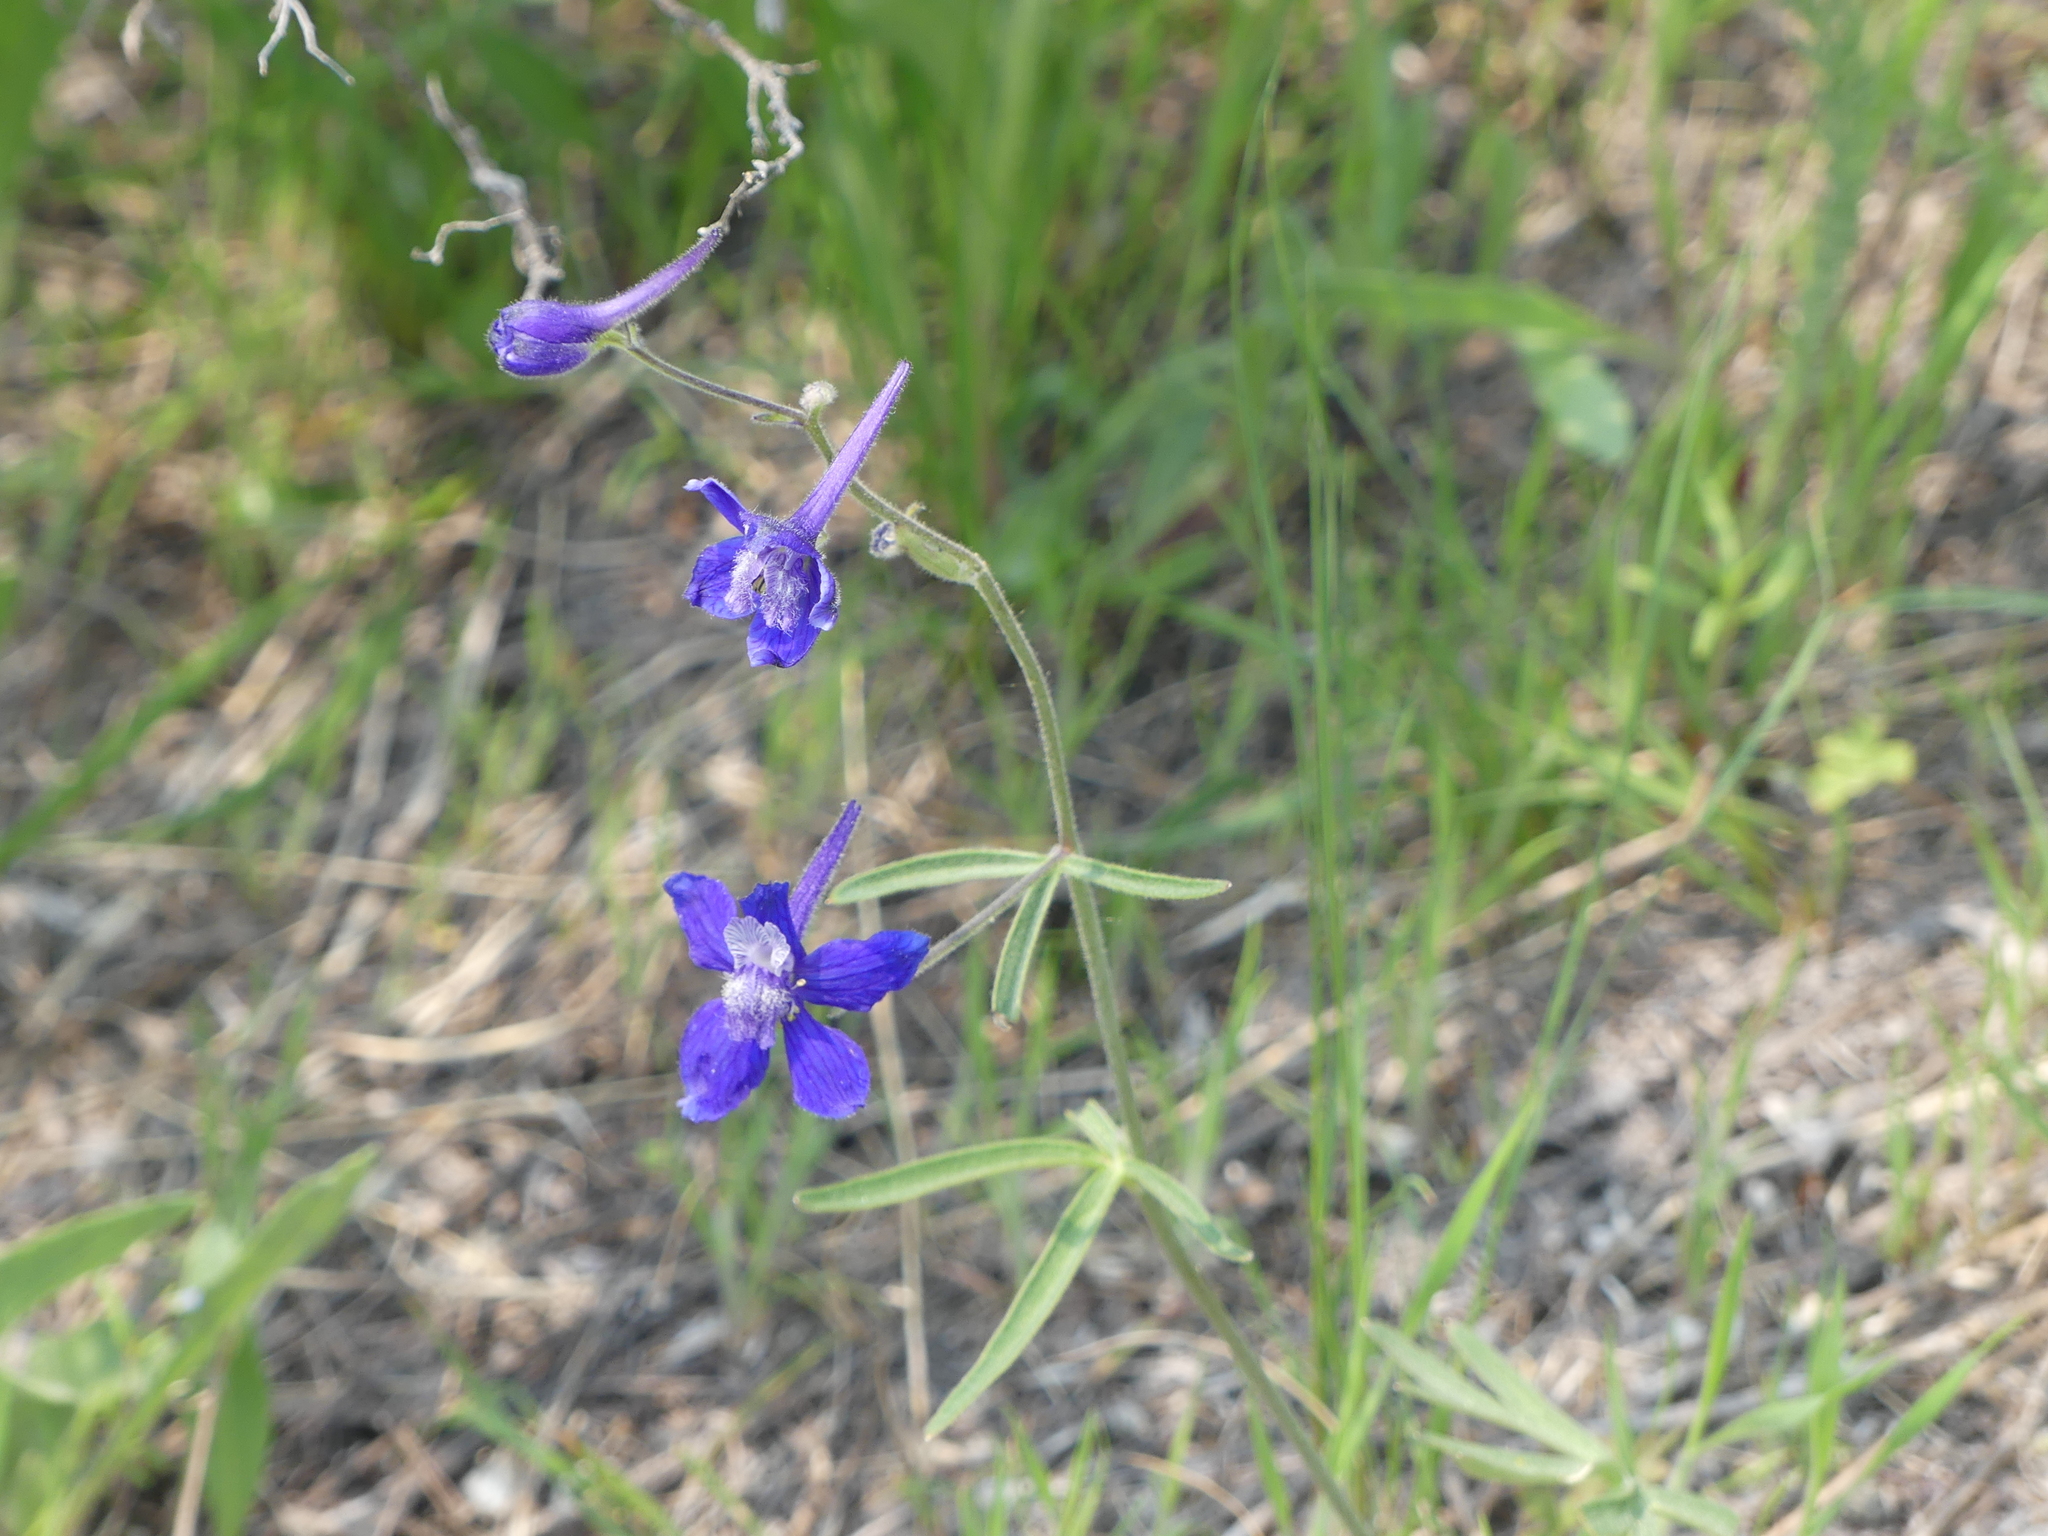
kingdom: Plantae
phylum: Tracheophyta
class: Magnoliopsida
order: Ranunculales
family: Ranunculaceae
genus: Delphinium
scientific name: Delphinium nuttallianum
